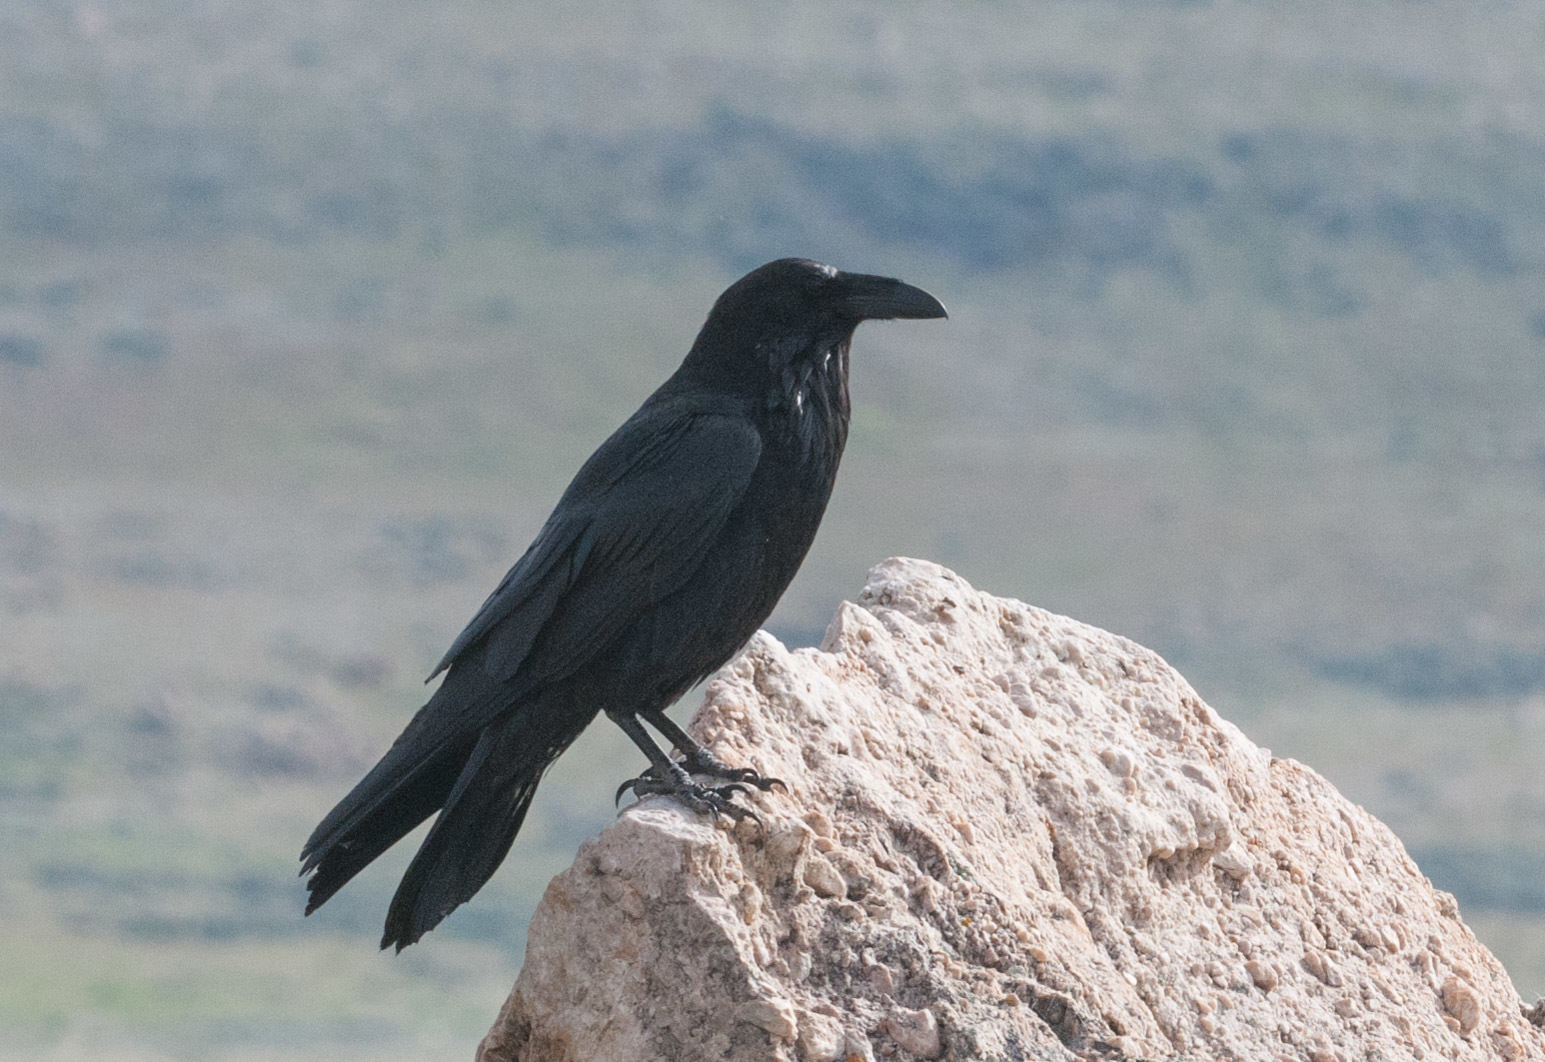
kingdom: Animalia
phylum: Chordata
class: Aves
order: Passeriformes
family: Corvidae
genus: Corvus
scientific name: Corvus corax
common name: Common raven
